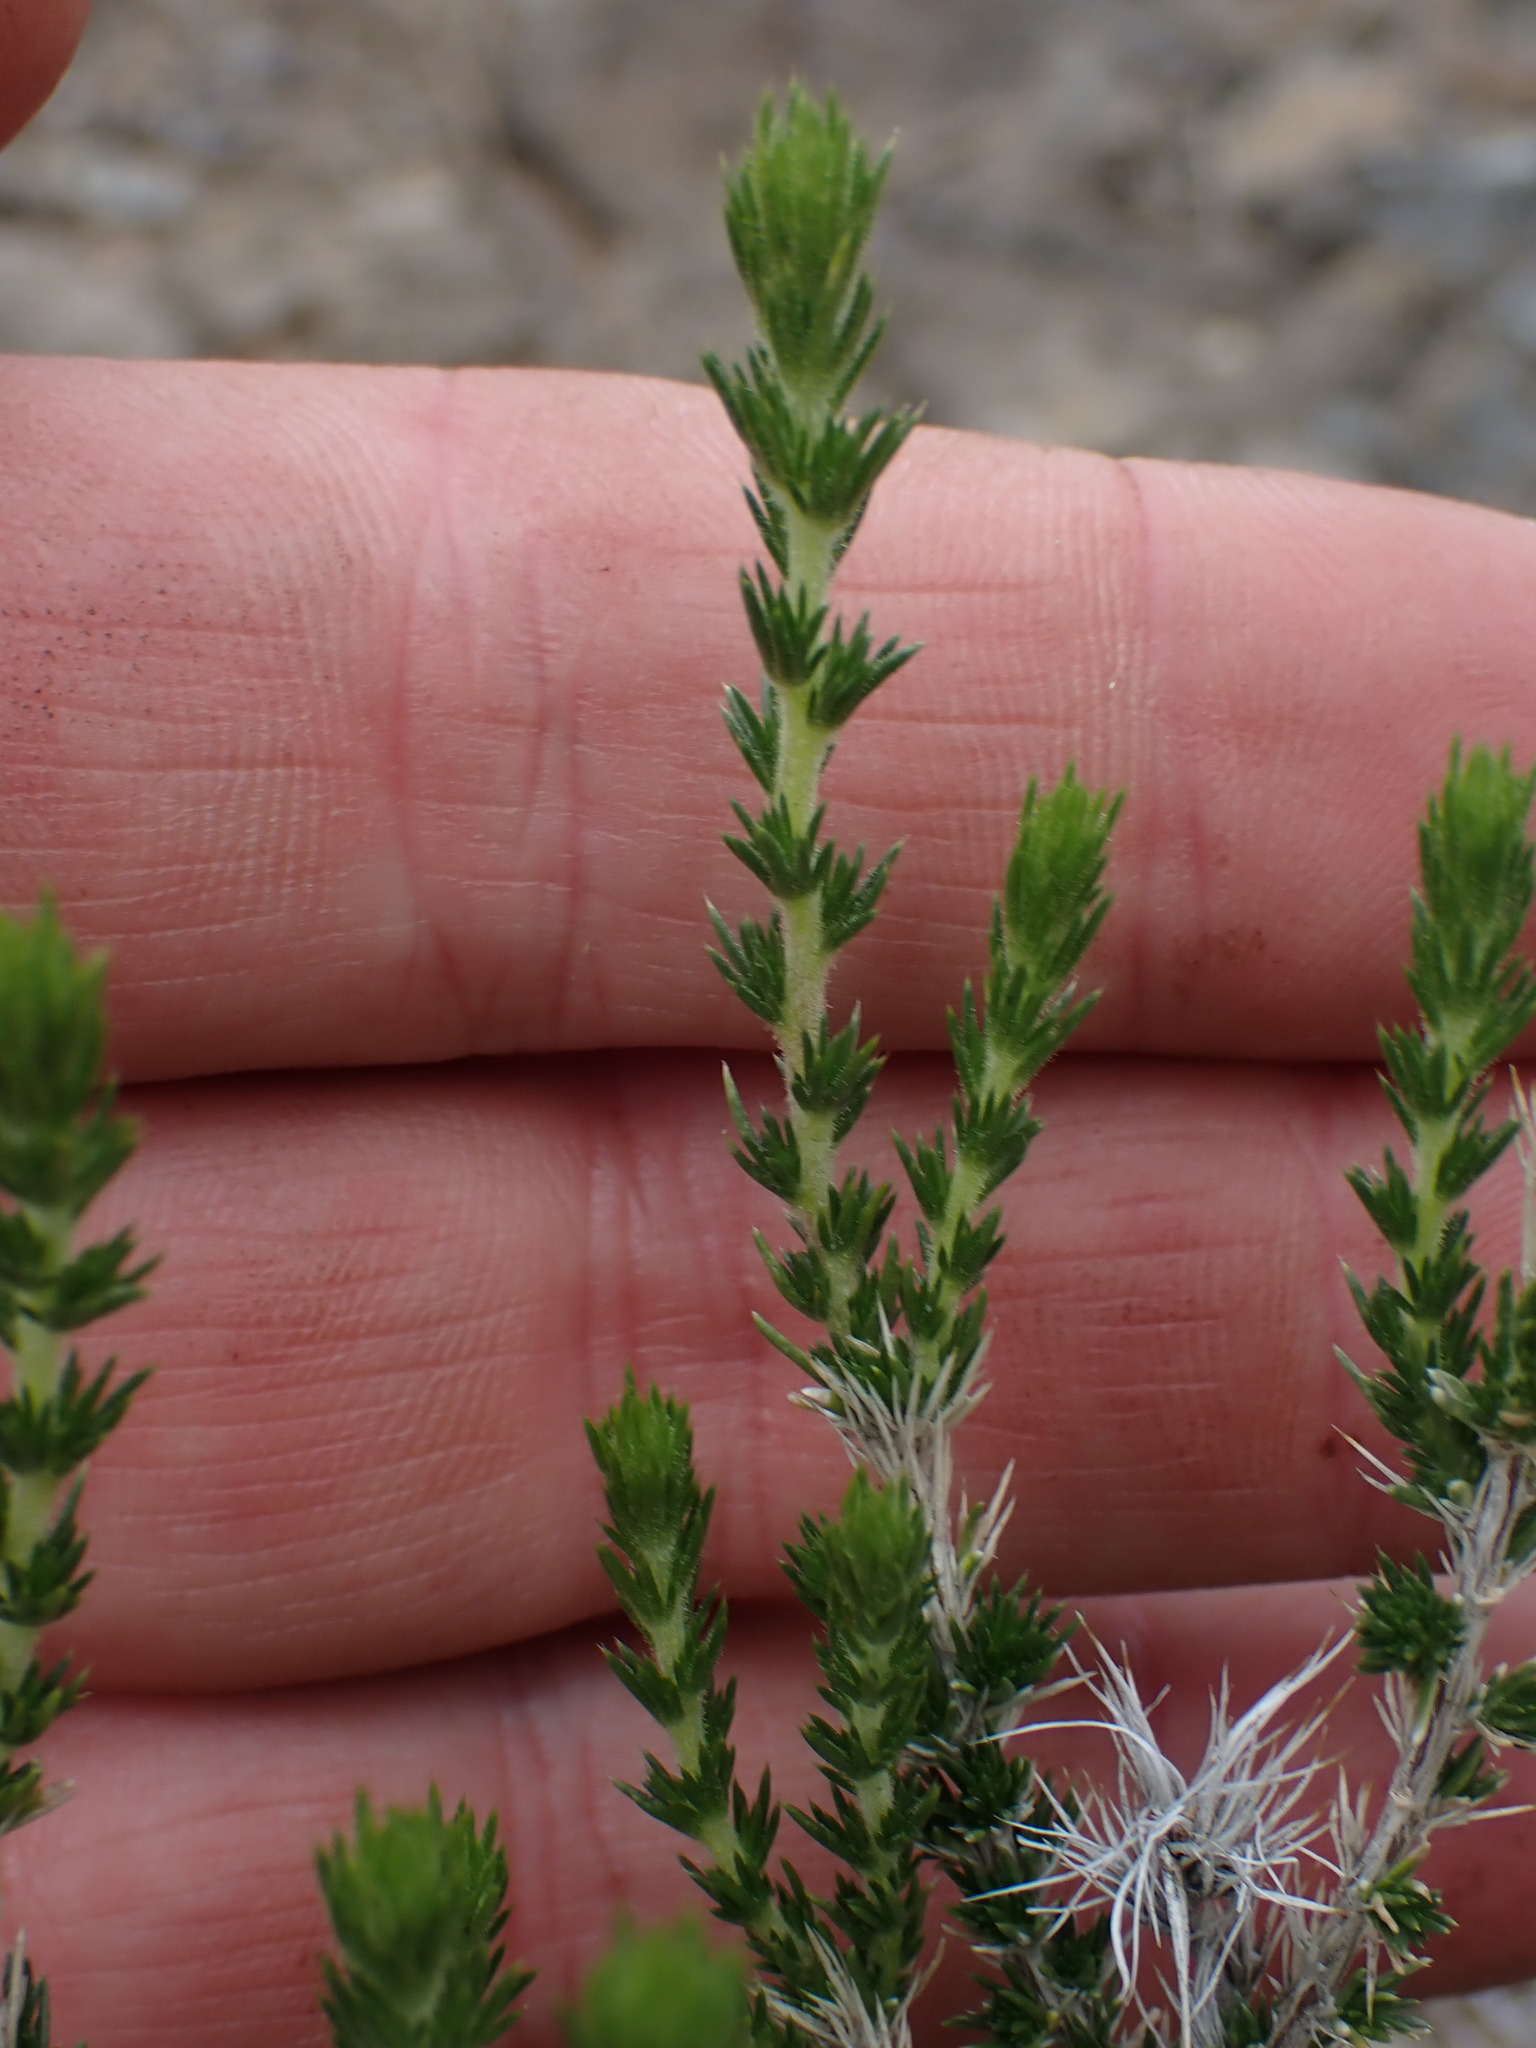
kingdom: Plantae
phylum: Tracheophyta
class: Magnoliopsida
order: Ericales
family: Polemoniaceae
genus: Linanthus
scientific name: Linanthus pungens
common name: Granite prickly phlox
